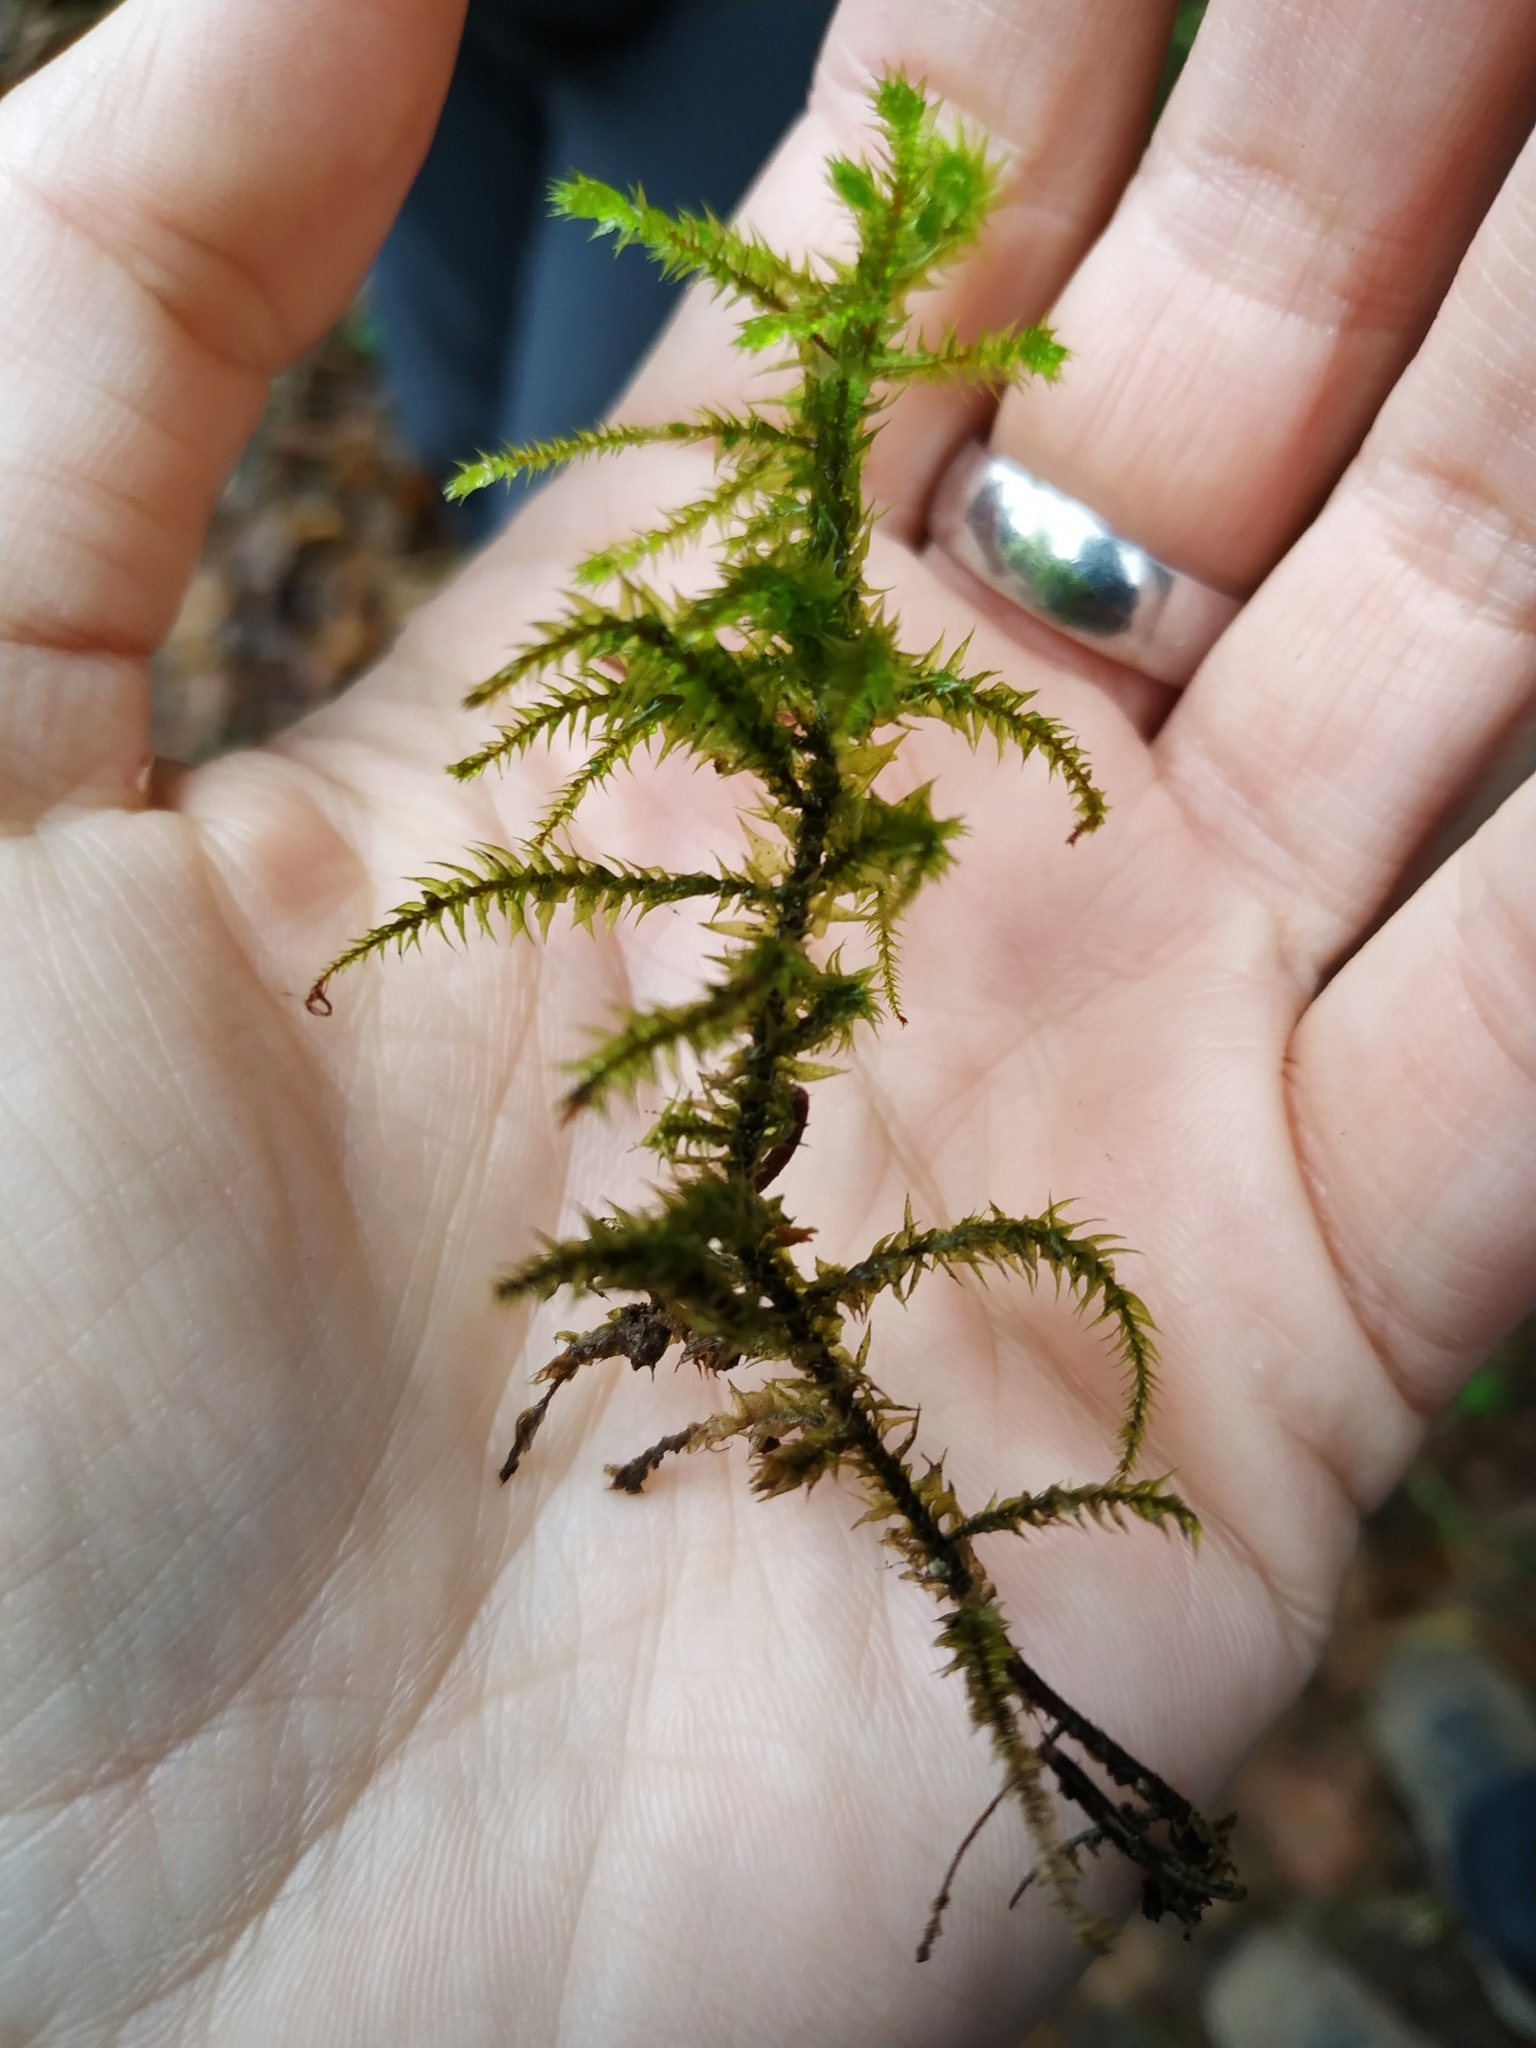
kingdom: Plantae
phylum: Bryophyta
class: Bryopsida
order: Hypnales
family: Hylocomiaceae
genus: Hylocomiadelphus
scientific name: Hylocomiadelphus triquetrus
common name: Rough goose neck moss
